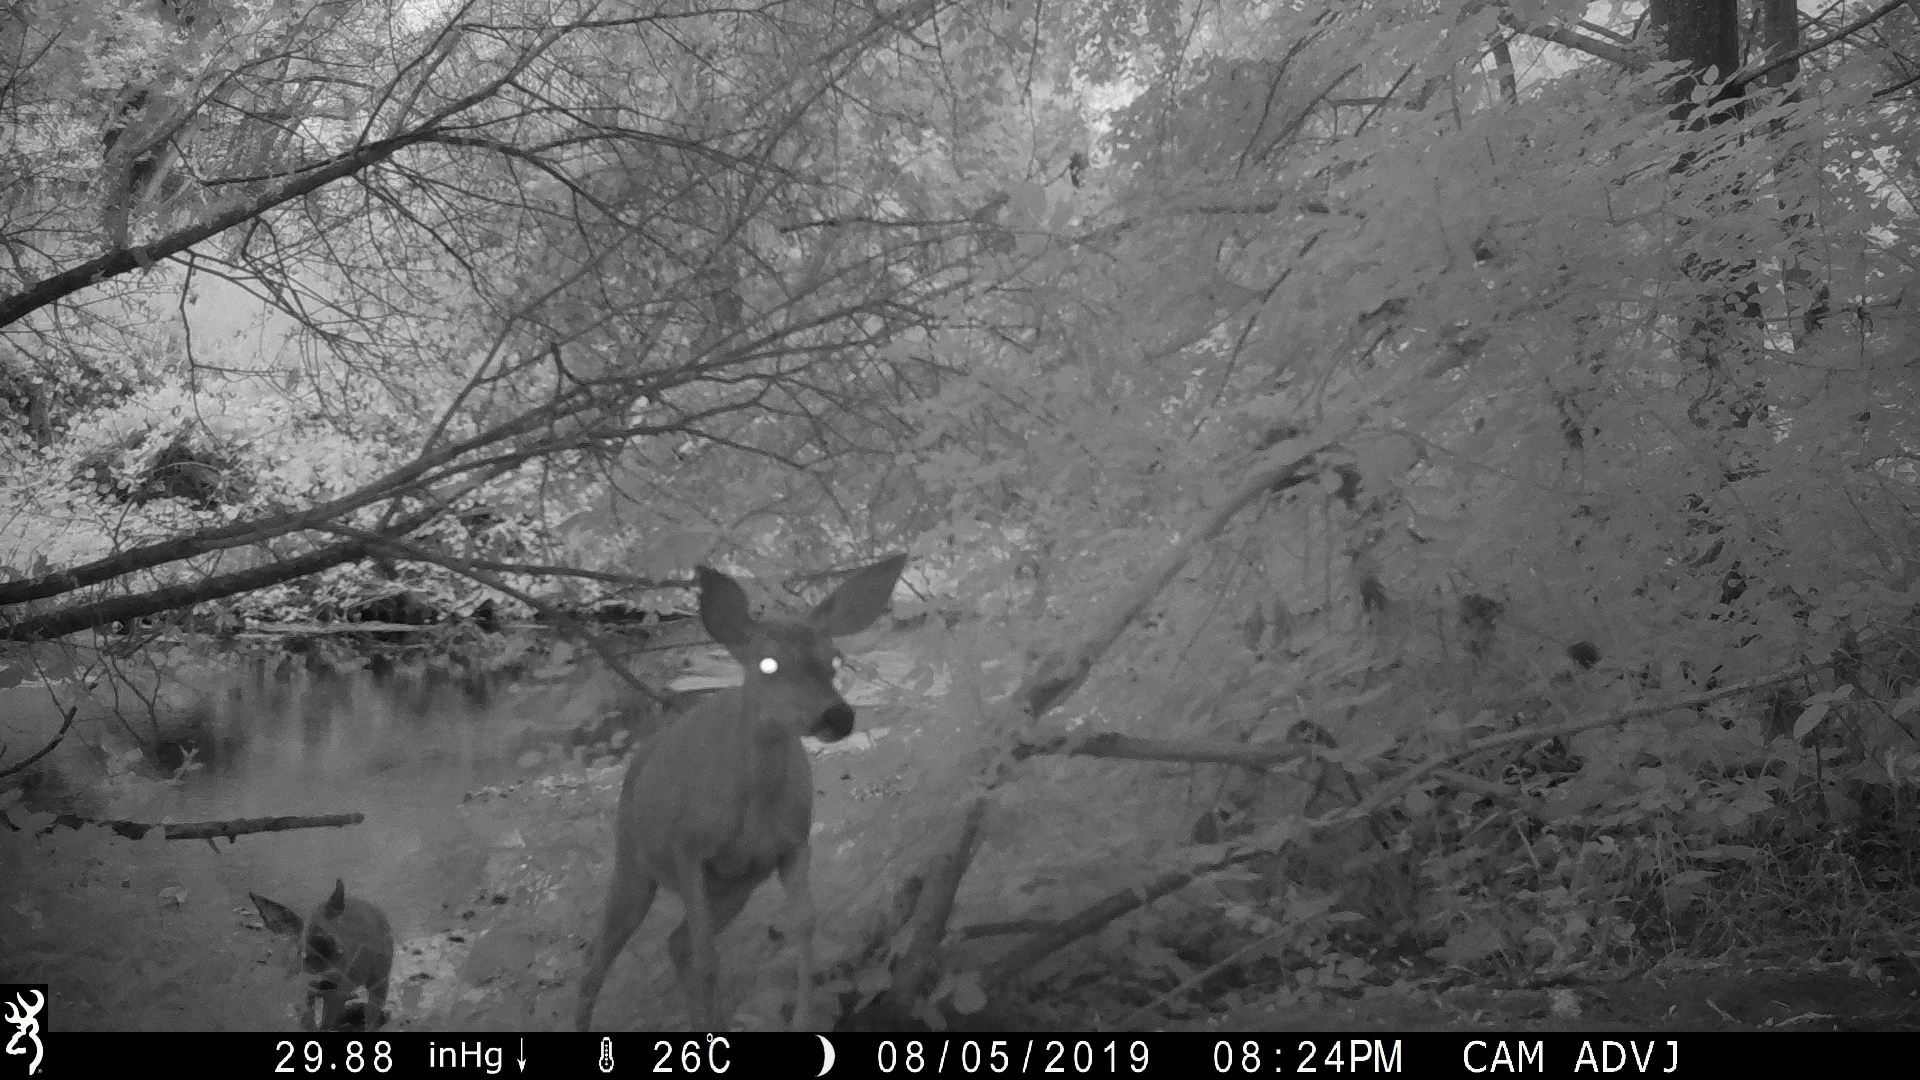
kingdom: Animalia
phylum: Chordata
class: Mammalia
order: Artiodactyla
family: Cervidae
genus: Odocoileus
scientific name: Odocoileus hemionus
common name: Mule deer
